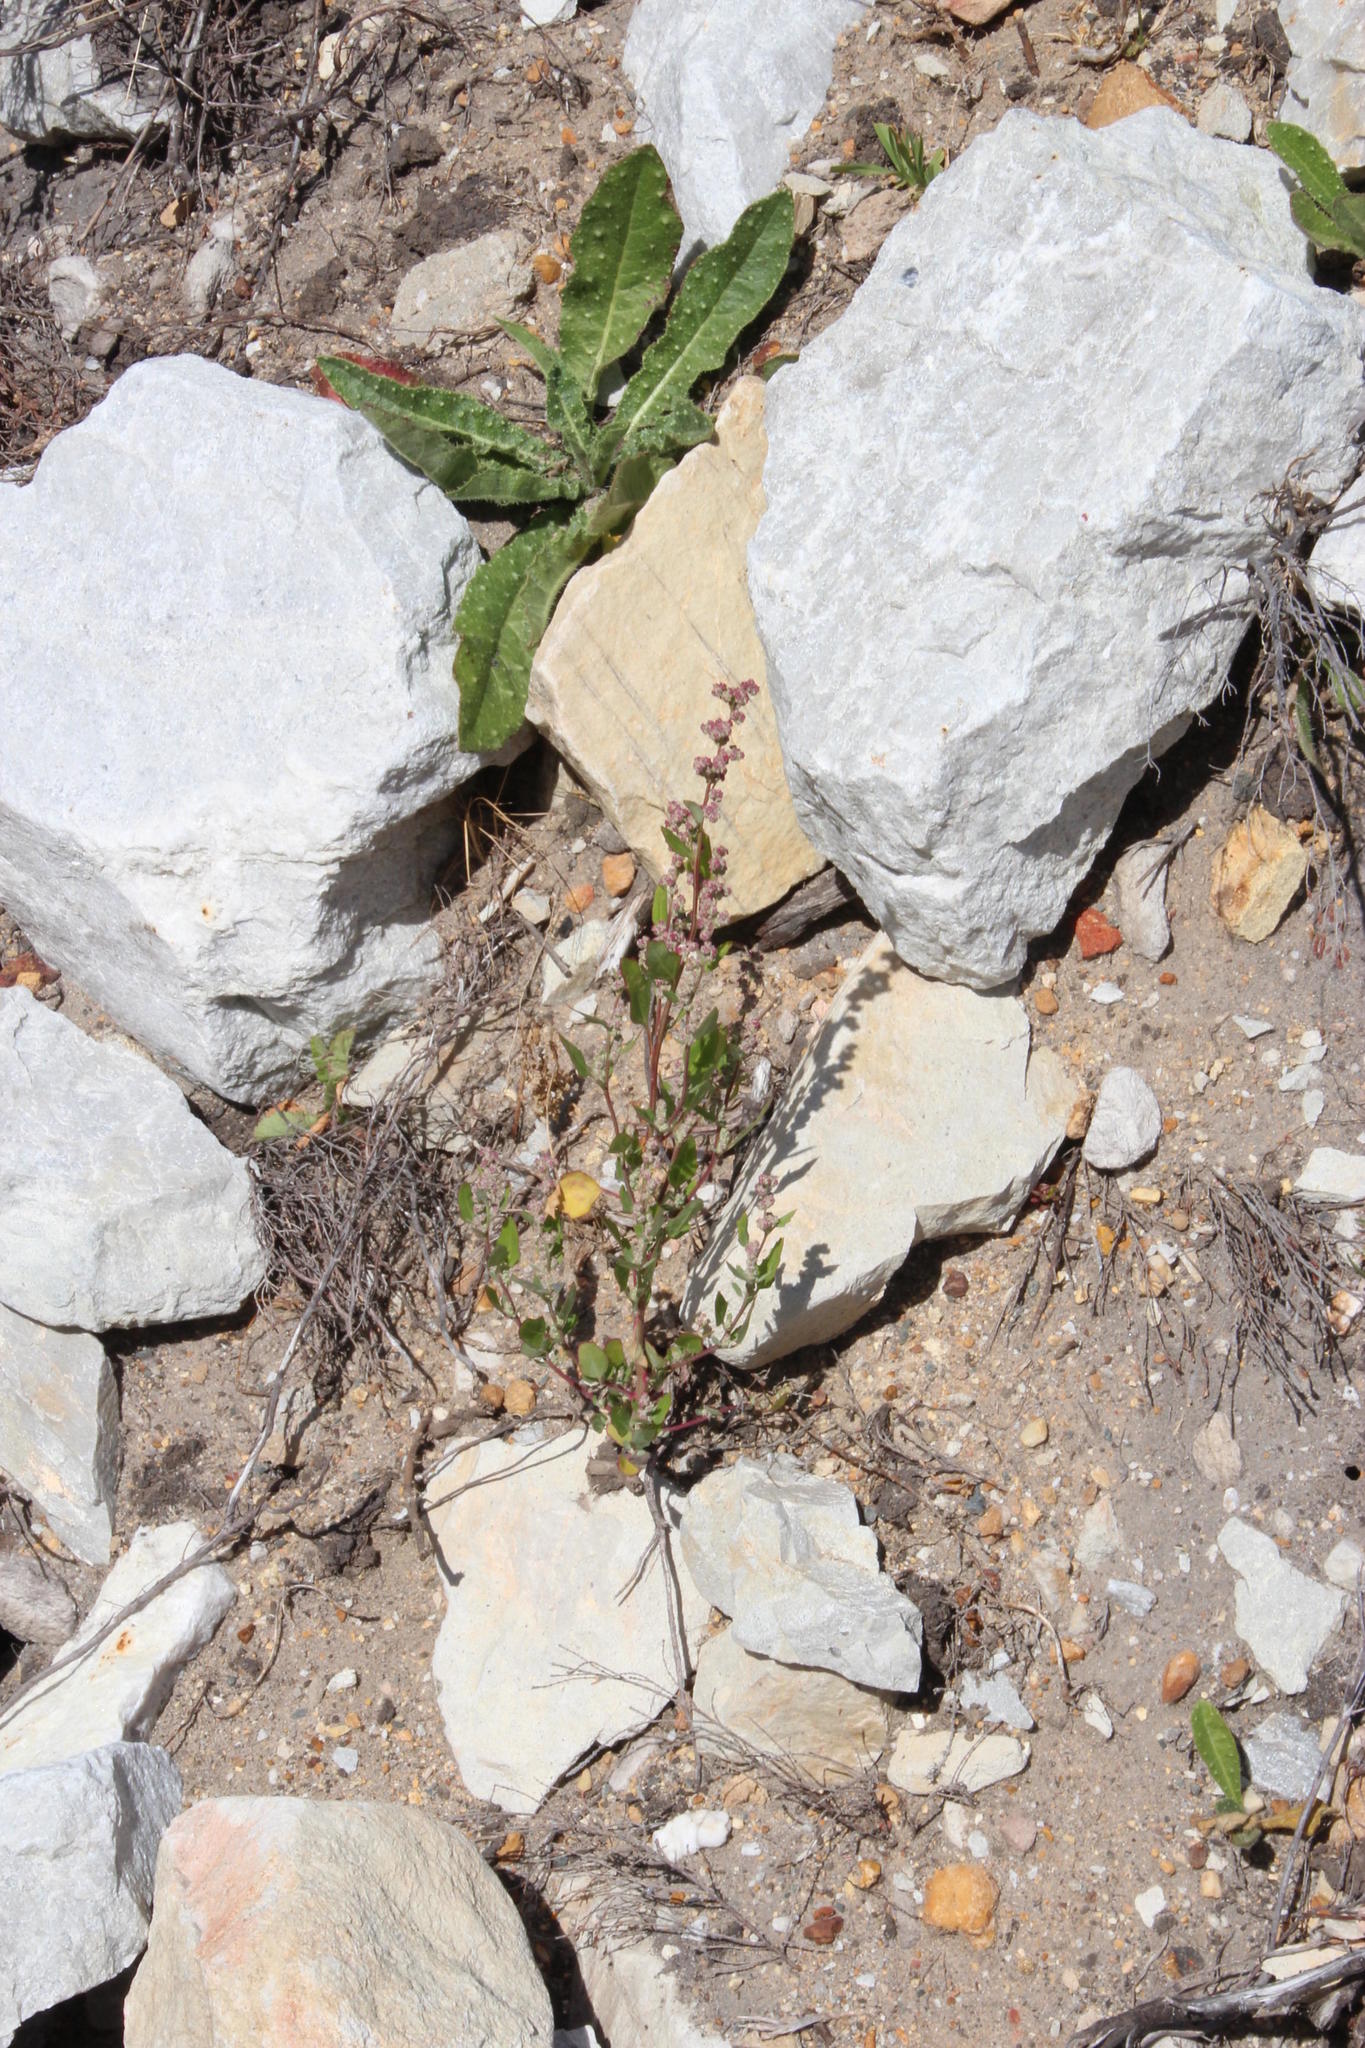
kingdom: Plantae
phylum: Tracheophyta
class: Magnoliopsida
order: Caryophyllales
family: Amaranthaceae
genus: Chenopodium
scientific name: Chenopodium album
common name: Fat-hen
